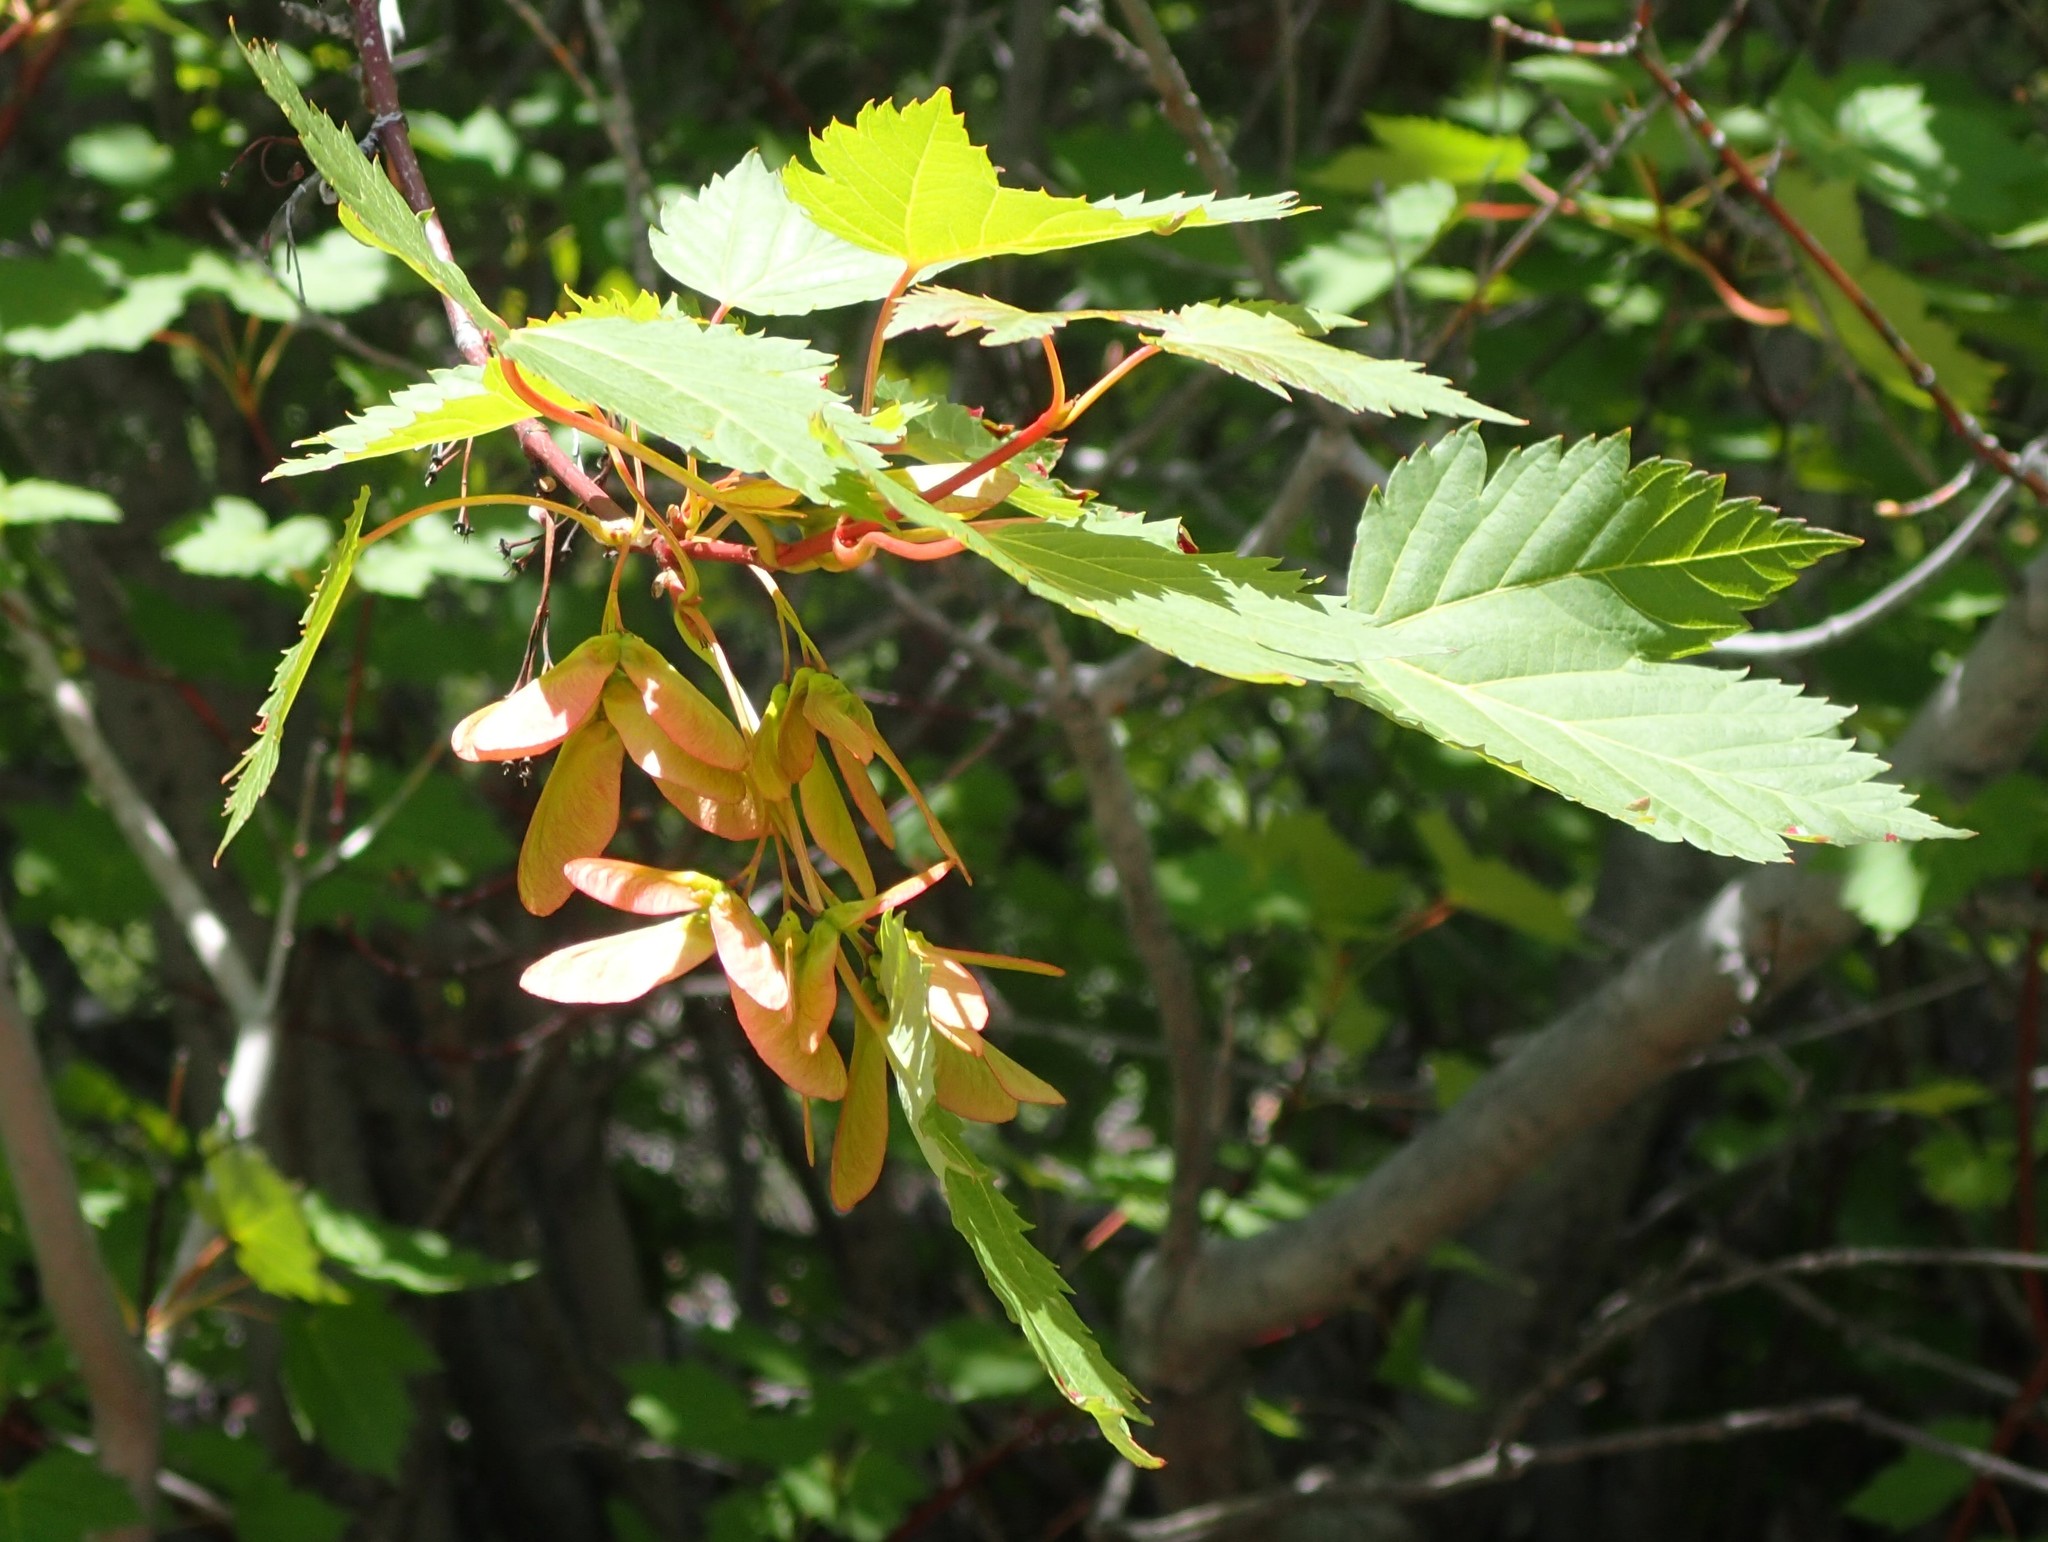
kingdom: Plantae
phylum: Tracheophyta
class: Magnoliopsida
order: Sapindales
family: Sapindaceae
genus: Acer
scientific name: Acer glabrum
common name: Rocky mountain maple
